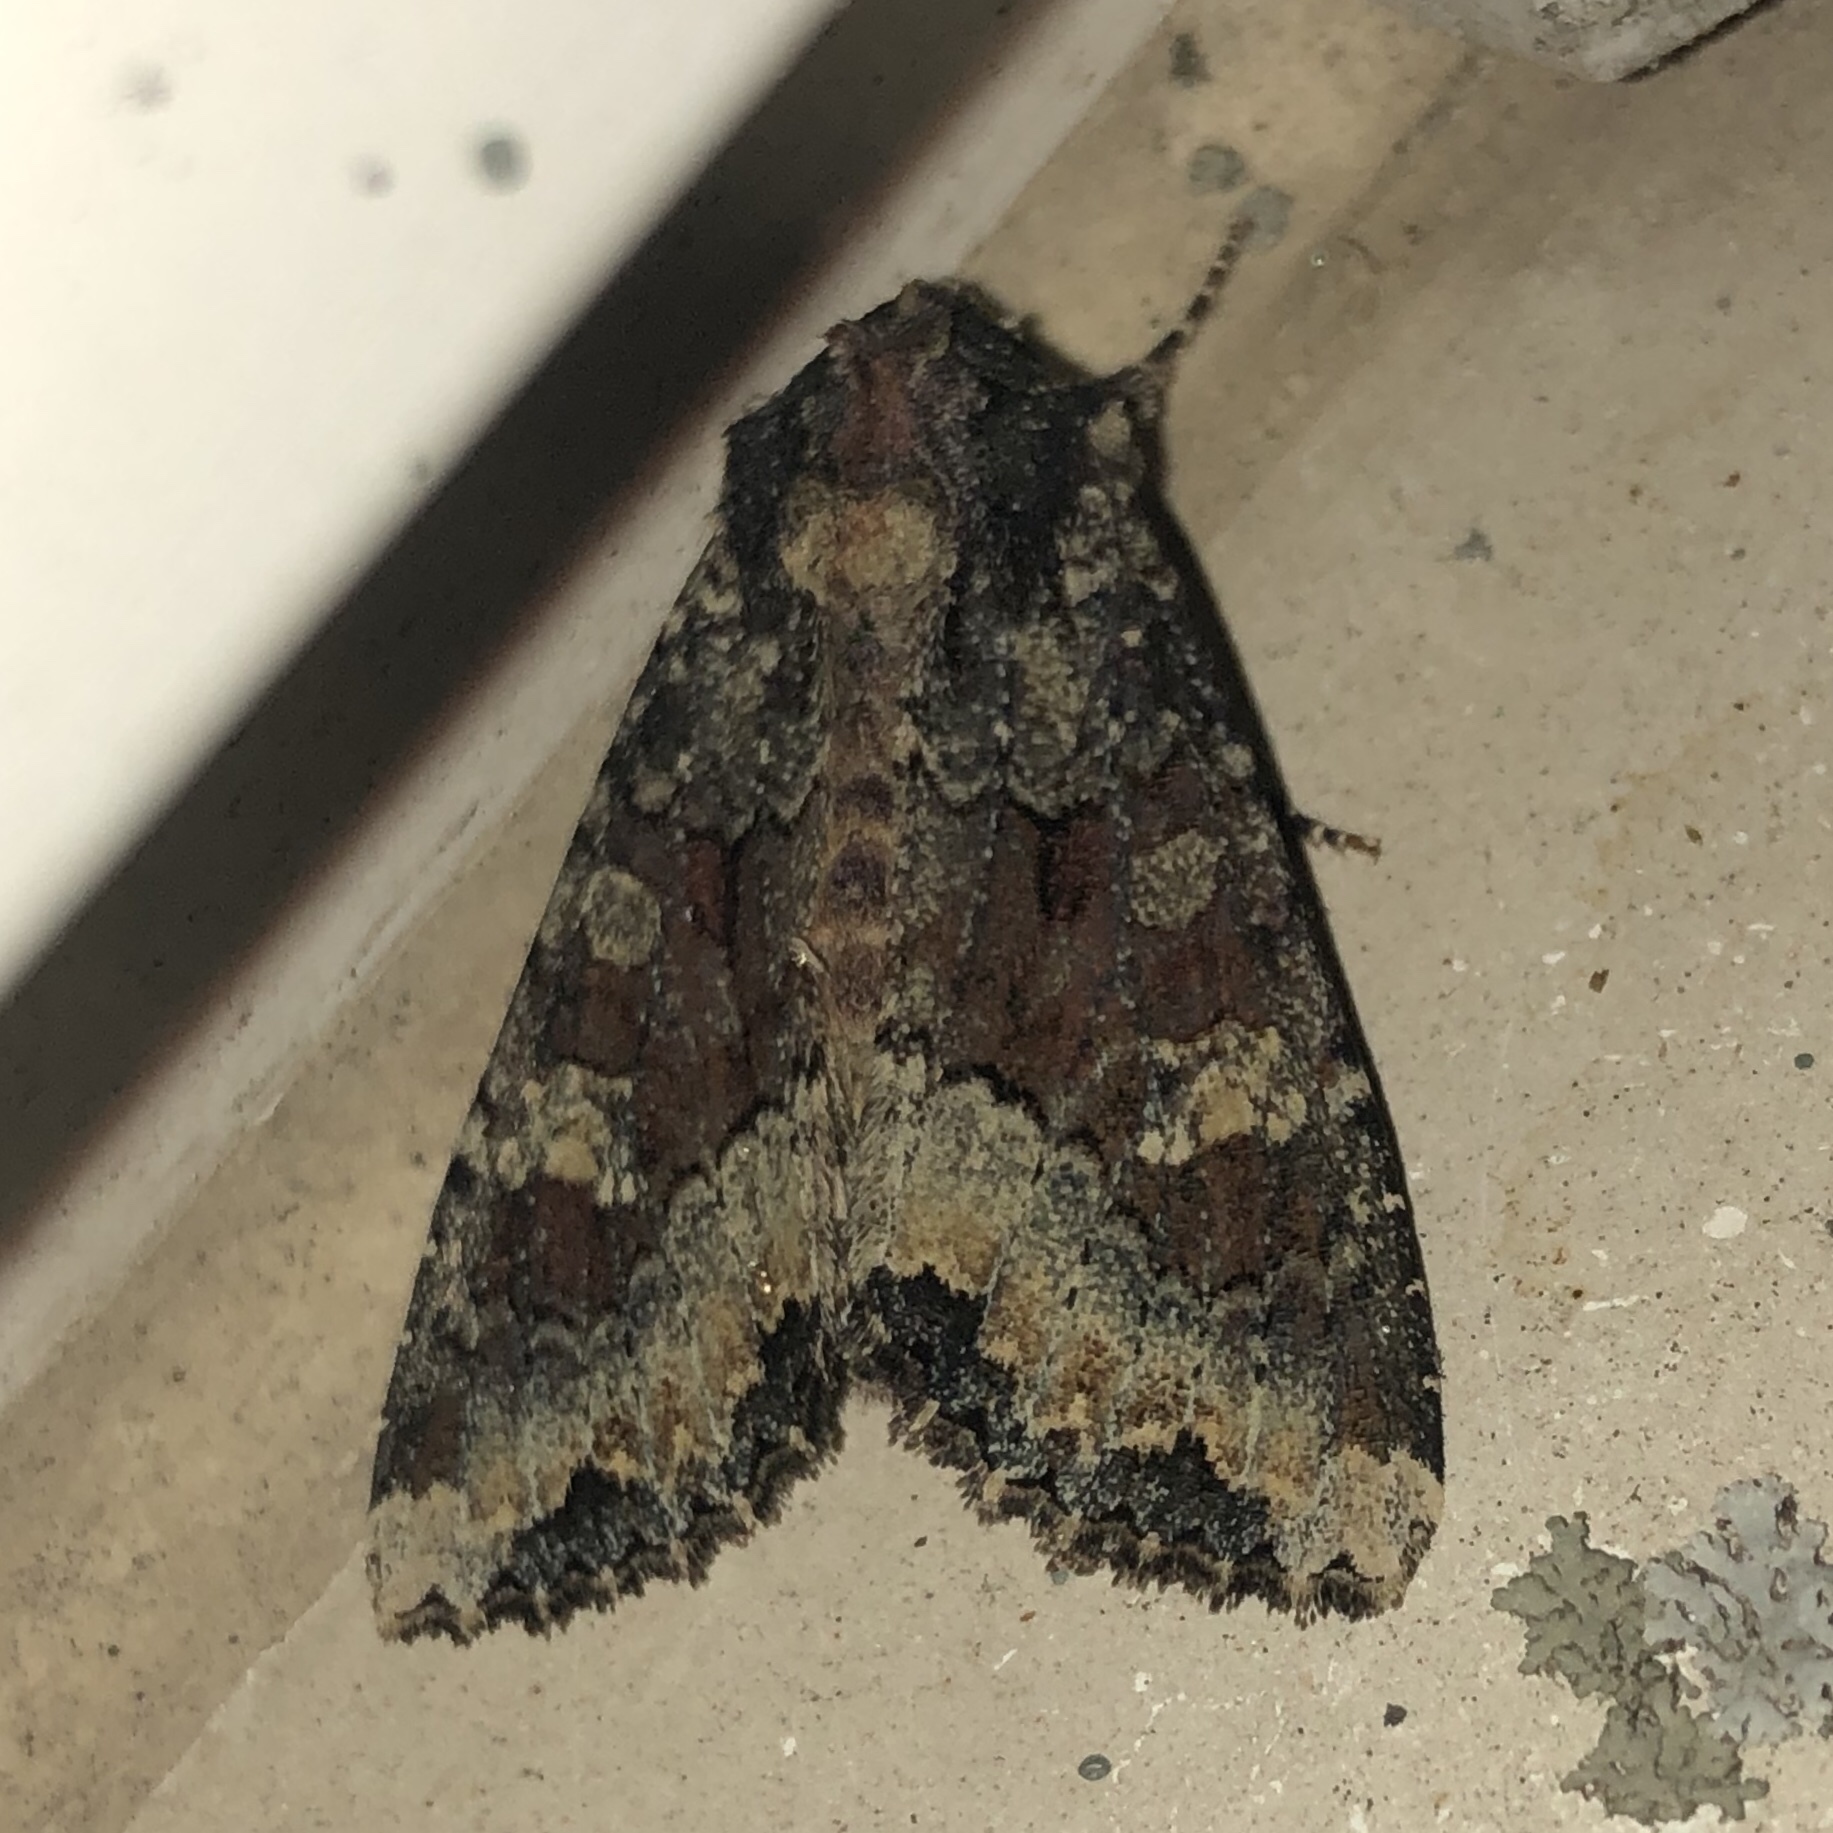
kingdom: Animalia
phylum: Arthropoda
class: Insecta
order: Lepidoptera
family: Noctuidae
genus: Apamea
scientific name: Apamea amputatrix
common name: Yellow-headed cutworm moth
